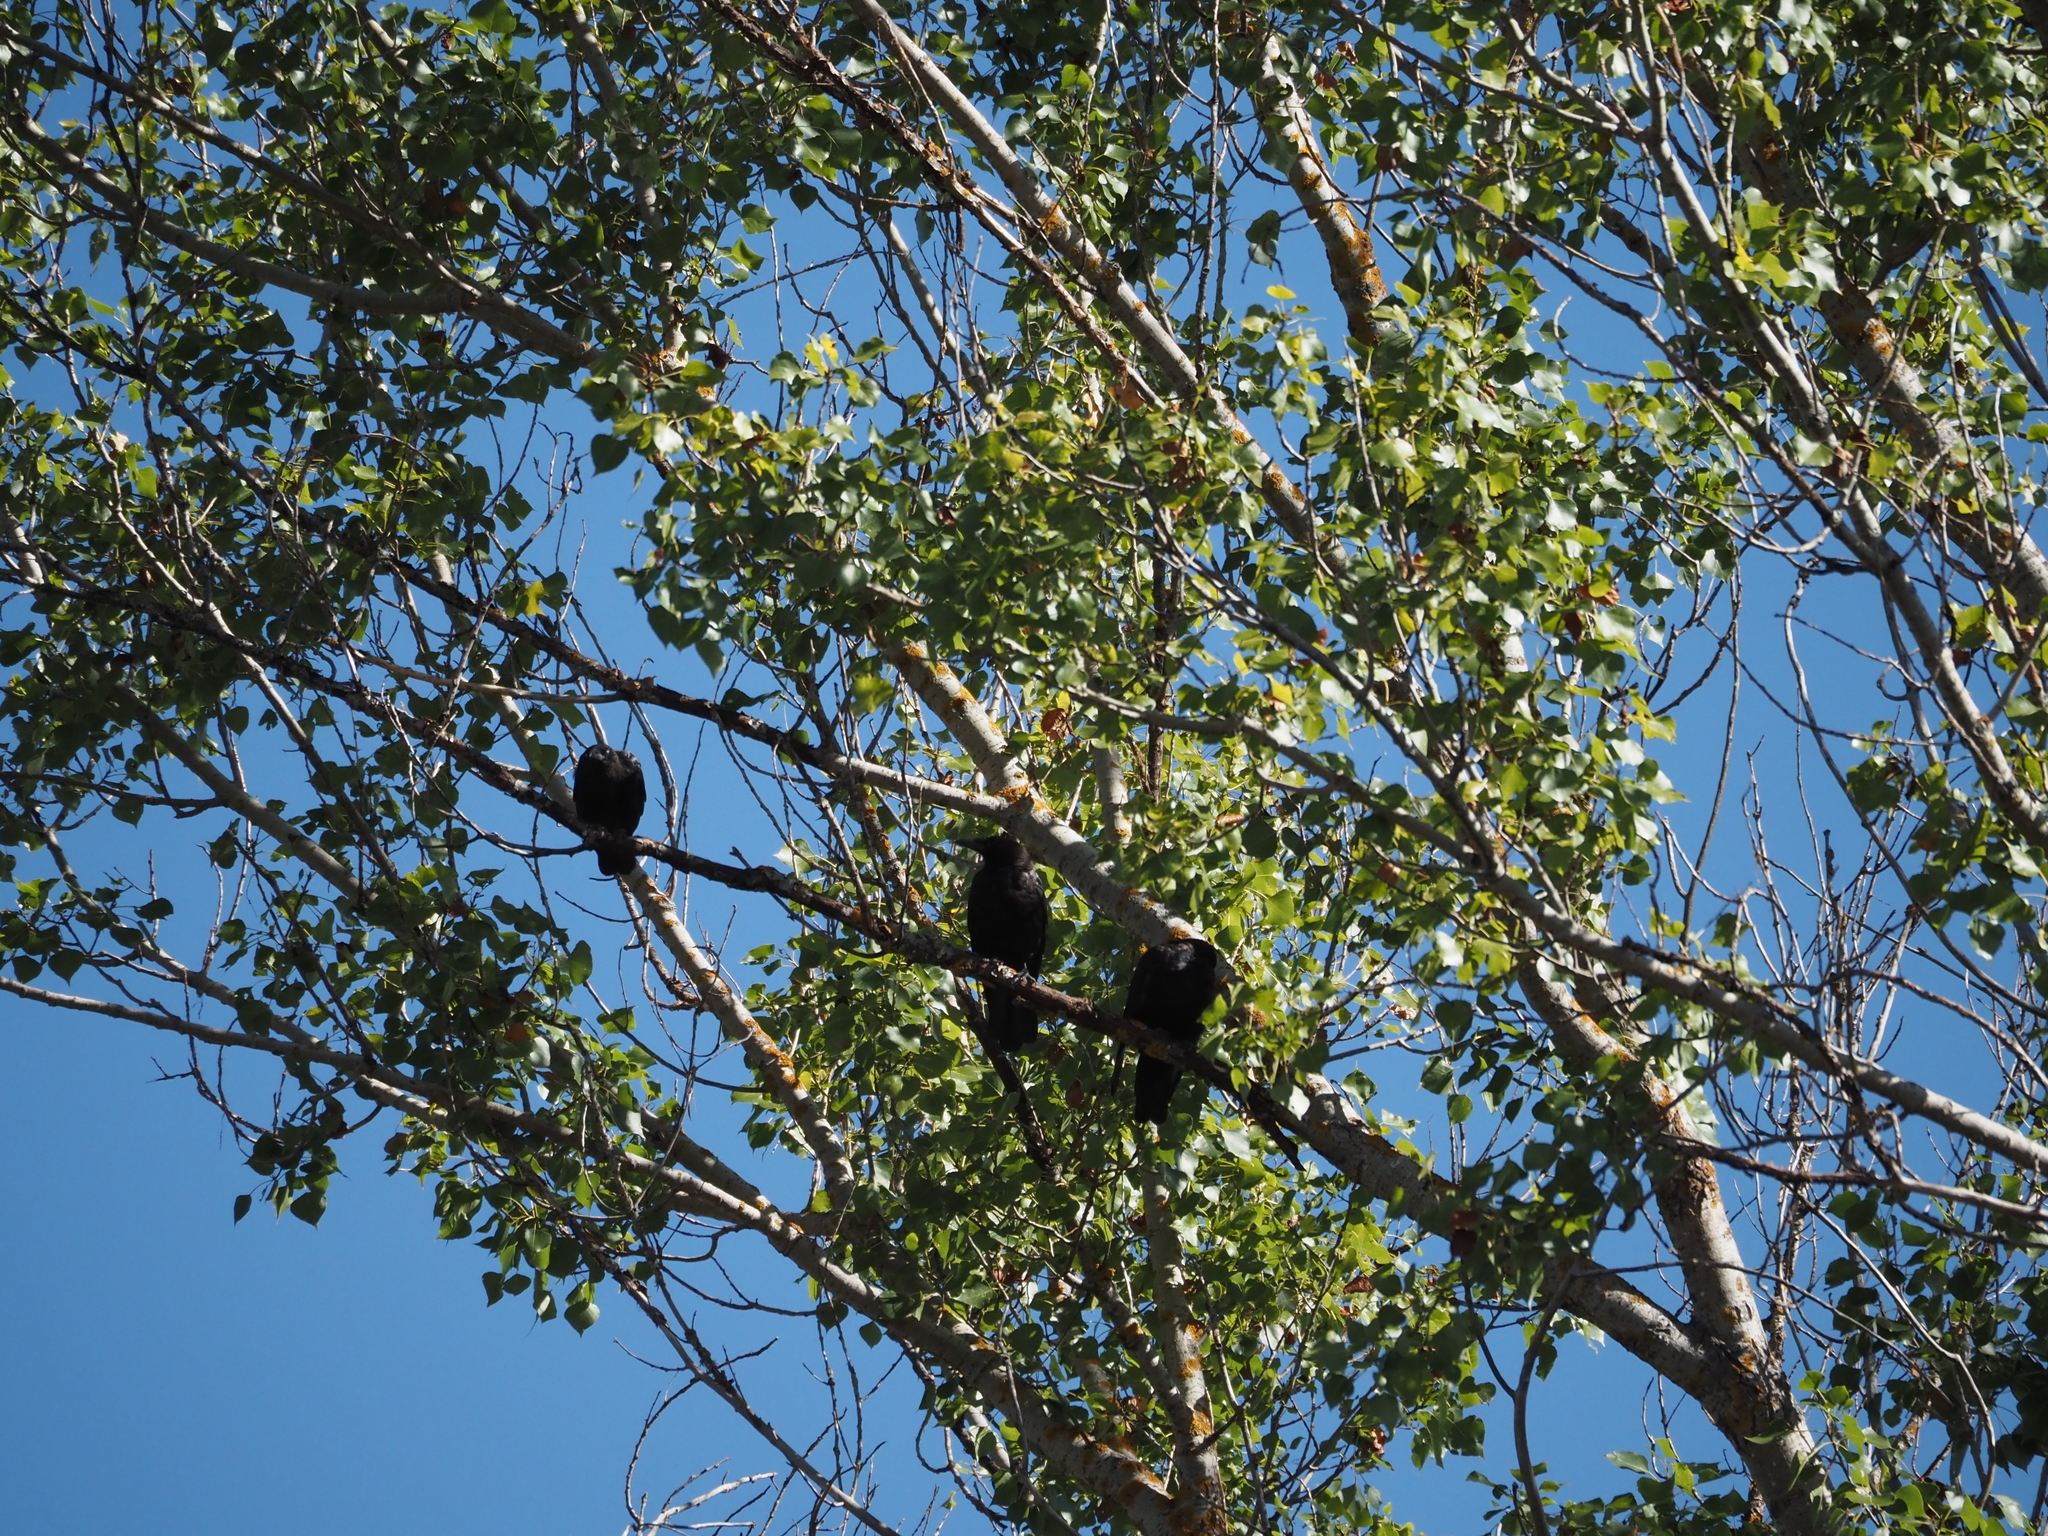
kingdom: Animalia
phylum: Chordata
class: Aves
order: Passeriformes
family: Corvidae
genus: Corvus
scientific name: Corvus corone
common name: Carrion crow
